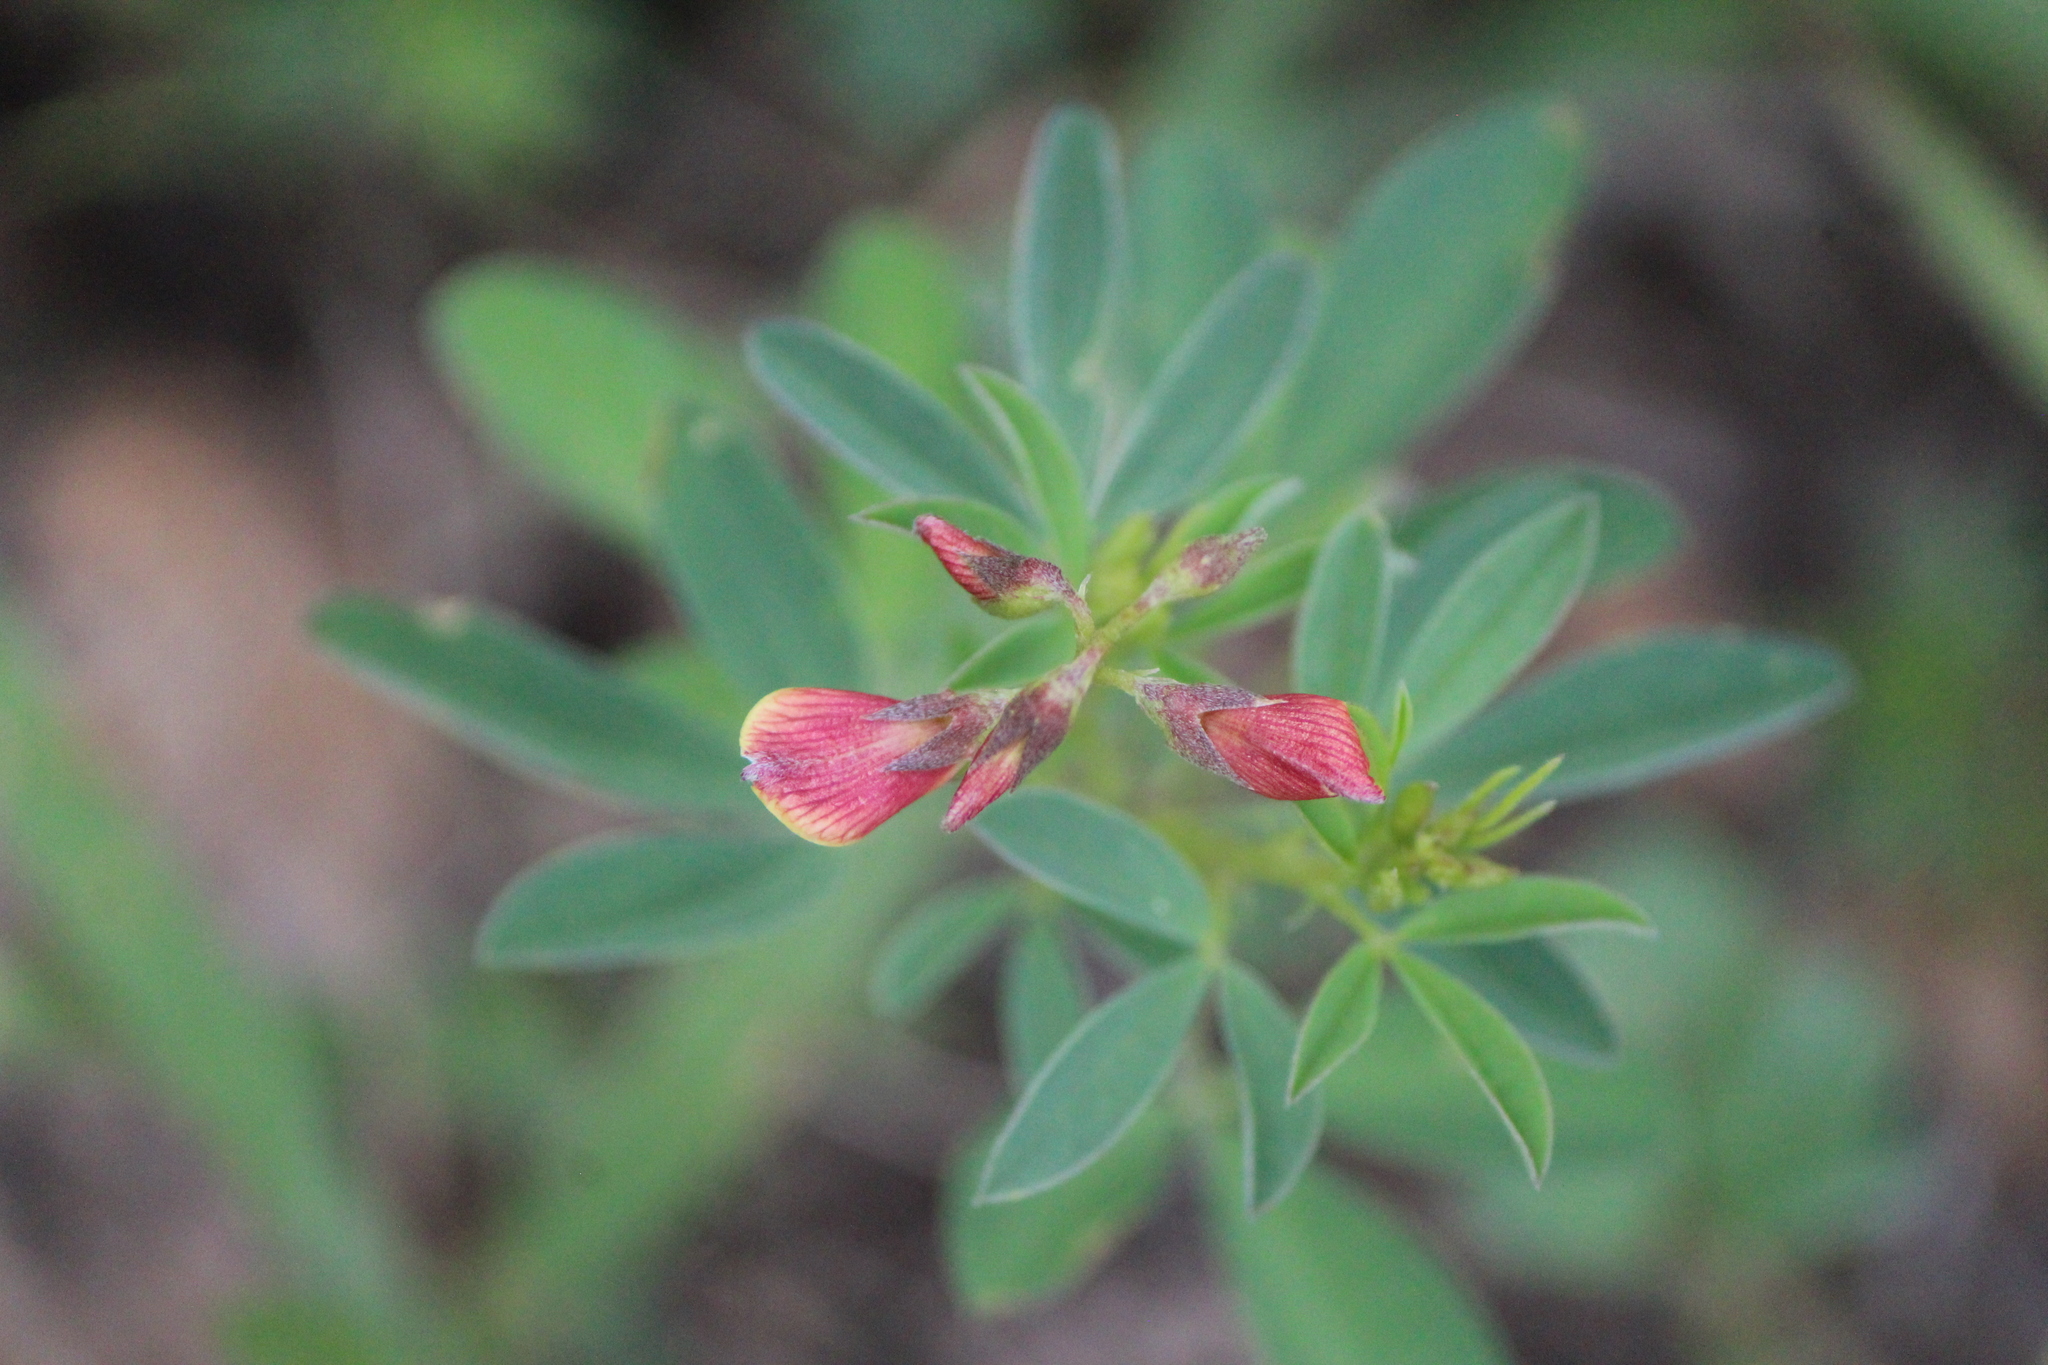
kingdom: Plantae
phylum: Tracheophyta
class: Magnoliopsida
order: Fabales
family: Fabaceae
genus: Crotalaria
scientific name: Crotalaria pumila
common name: Low rattlebox
